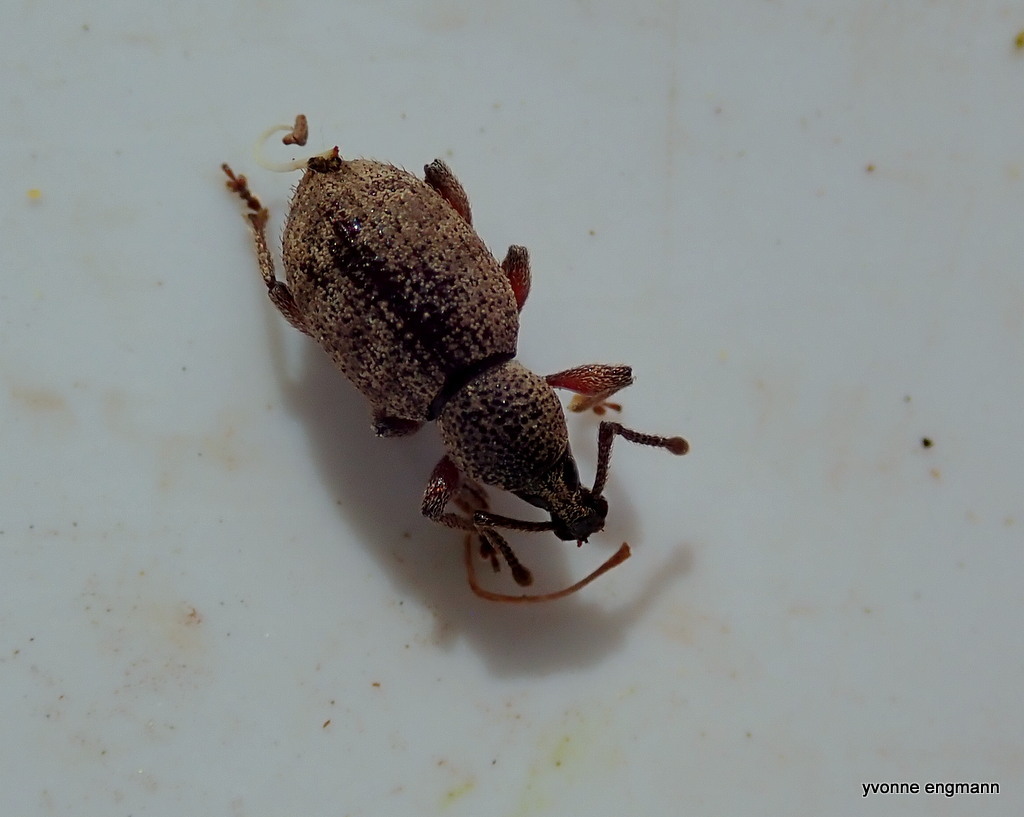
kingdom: Animalia
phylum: Arthropoda
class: Insecta
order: Coleoptera
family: Curculionidae
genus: Otiorhynchus
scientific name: Otiorhynchus singularis
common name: Clay-coloured weevil
